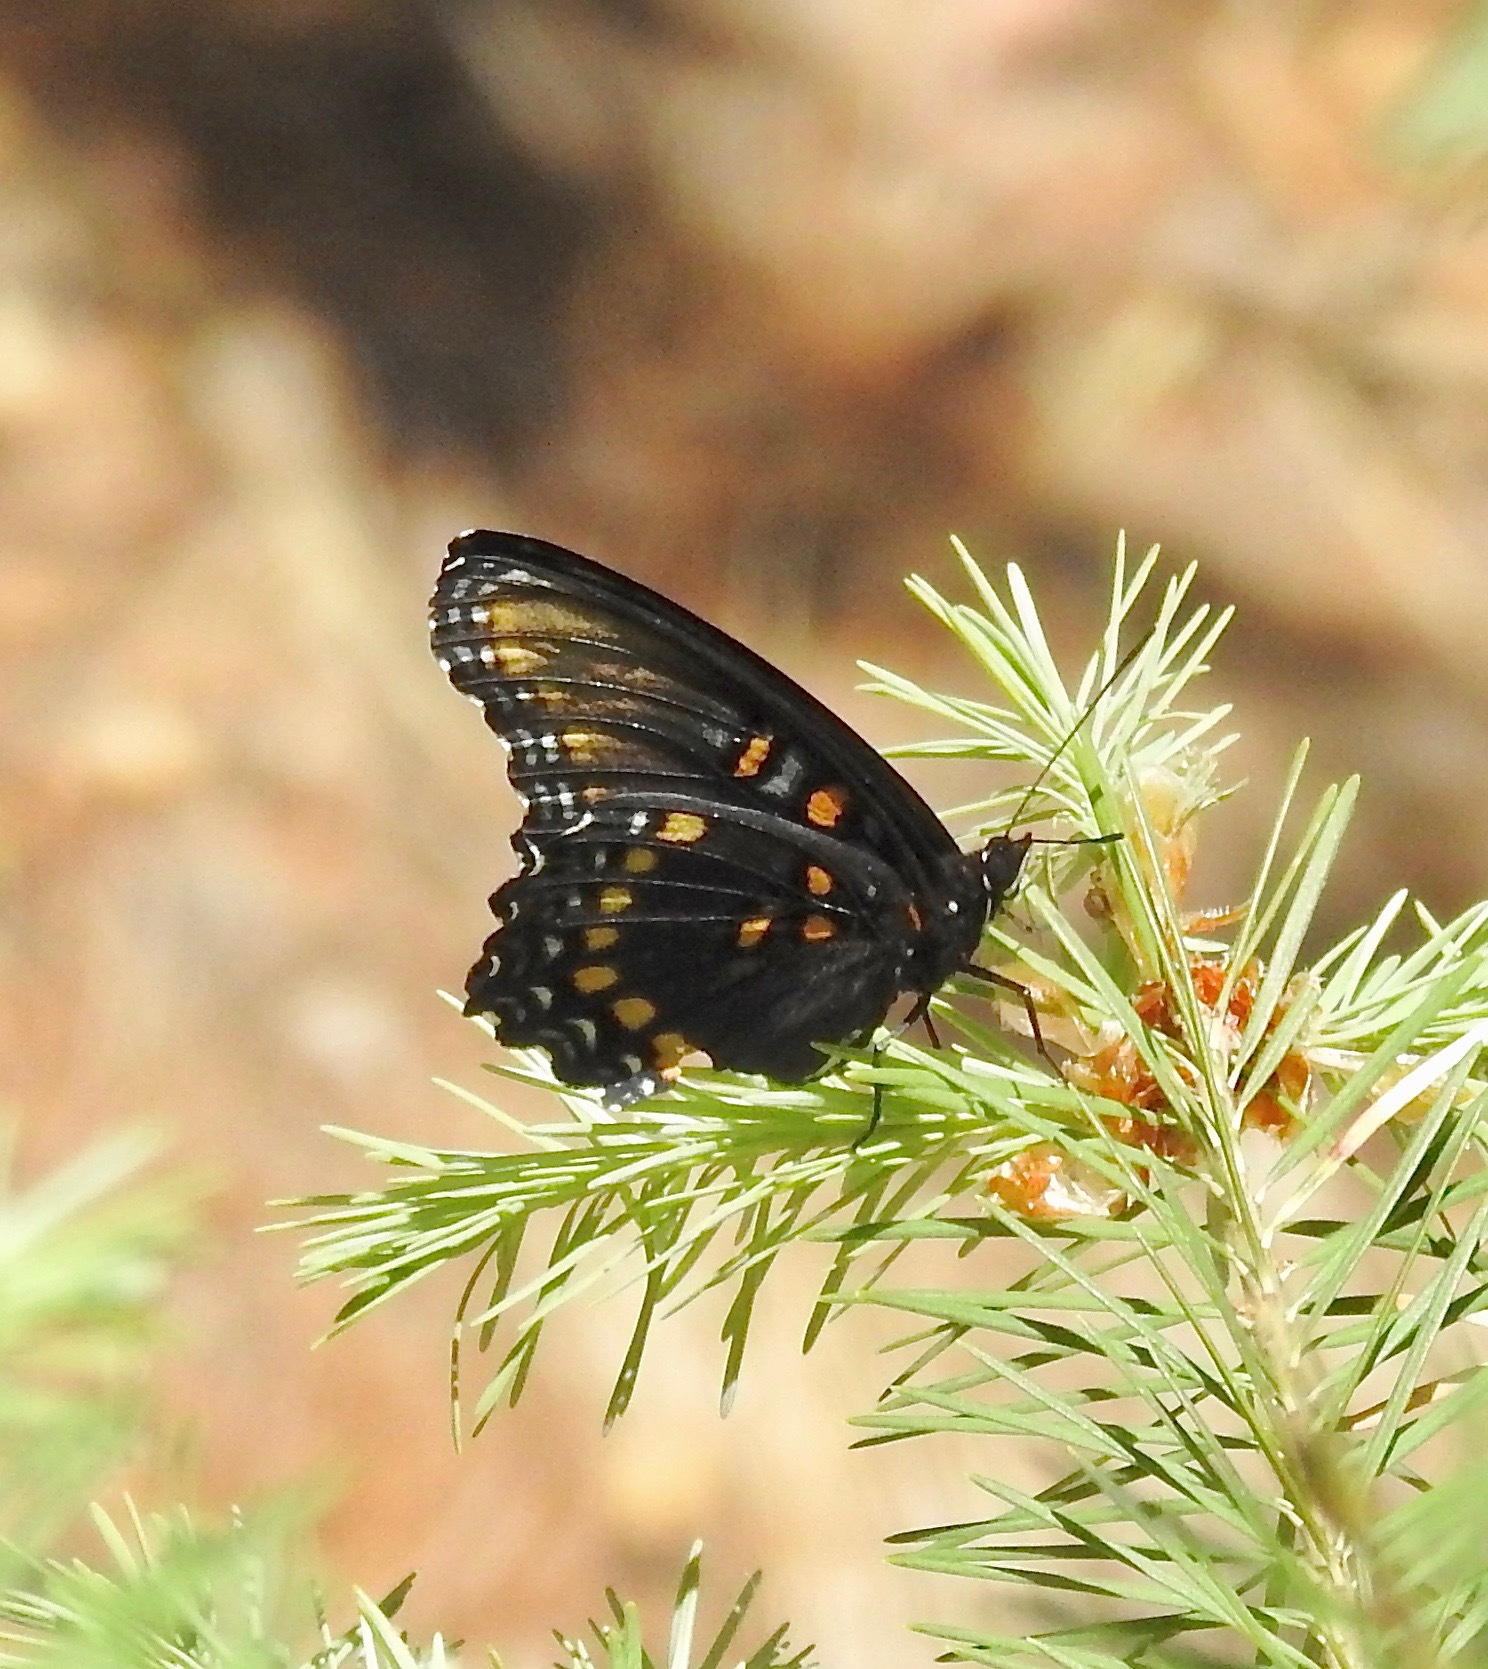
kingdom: Animalia
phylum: Arthropoda
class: Insecta
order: Lepidoptera
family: Nymphalidae
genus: Limenitis
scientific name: Limenitis arthemis
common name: Red-spotted admiral
